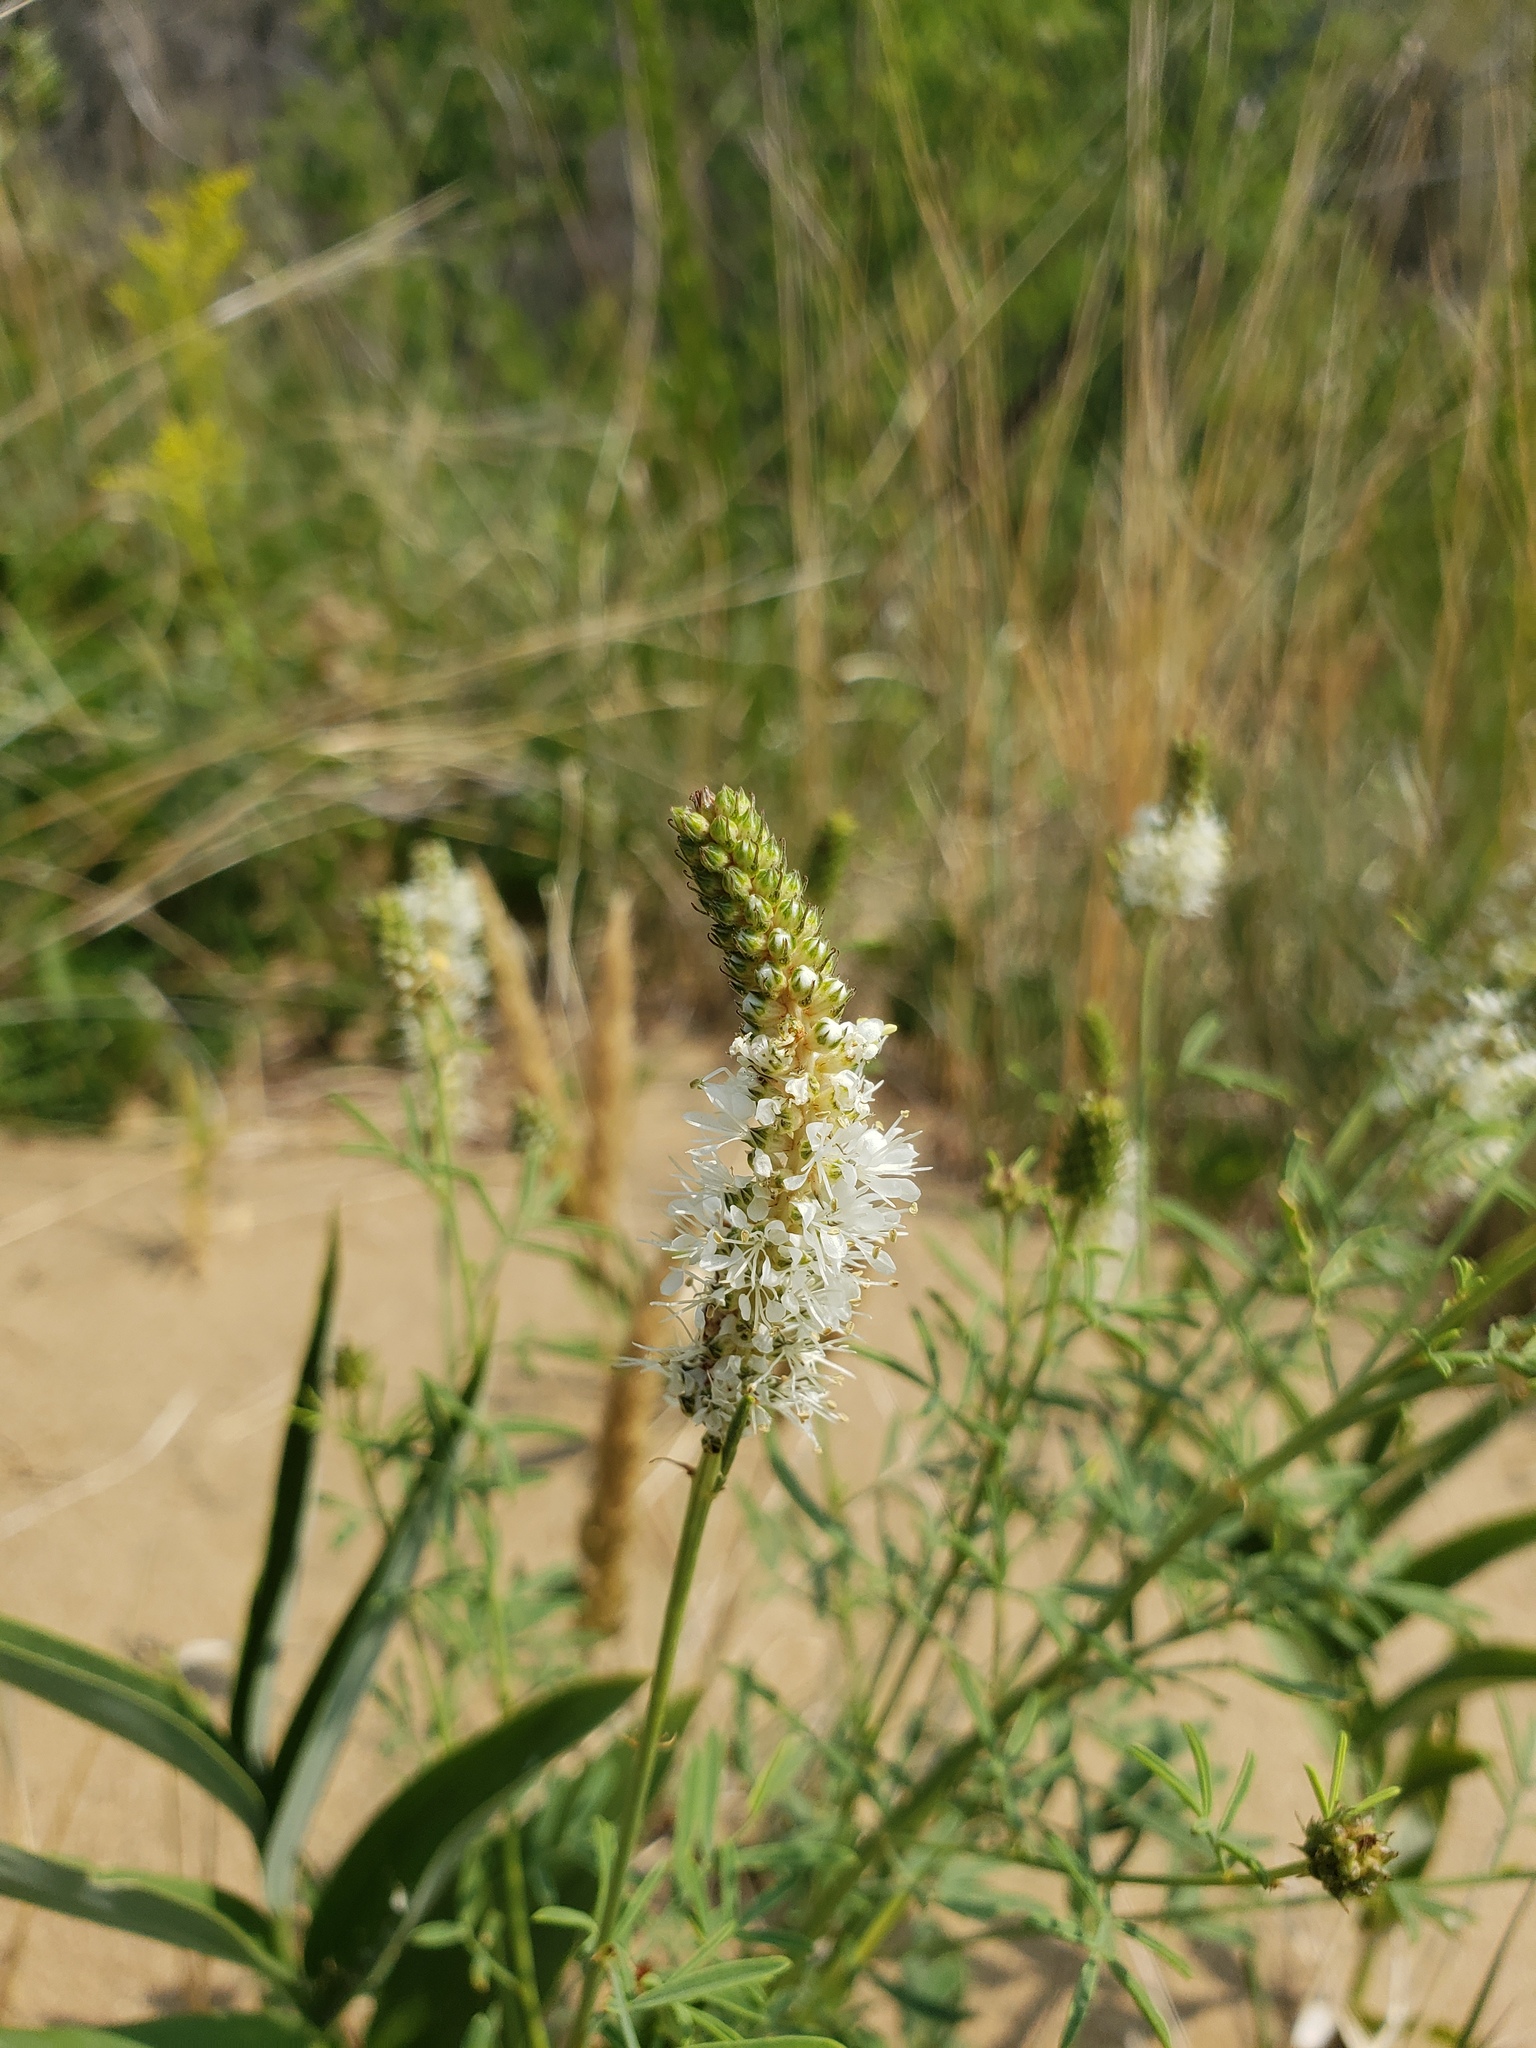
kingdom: Plantae
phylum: Tracheophyta
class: Magnoliopsida
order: Fabales
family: Fabaceae
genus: Dalea
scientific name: Dalea candida
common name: White prairie-clover
